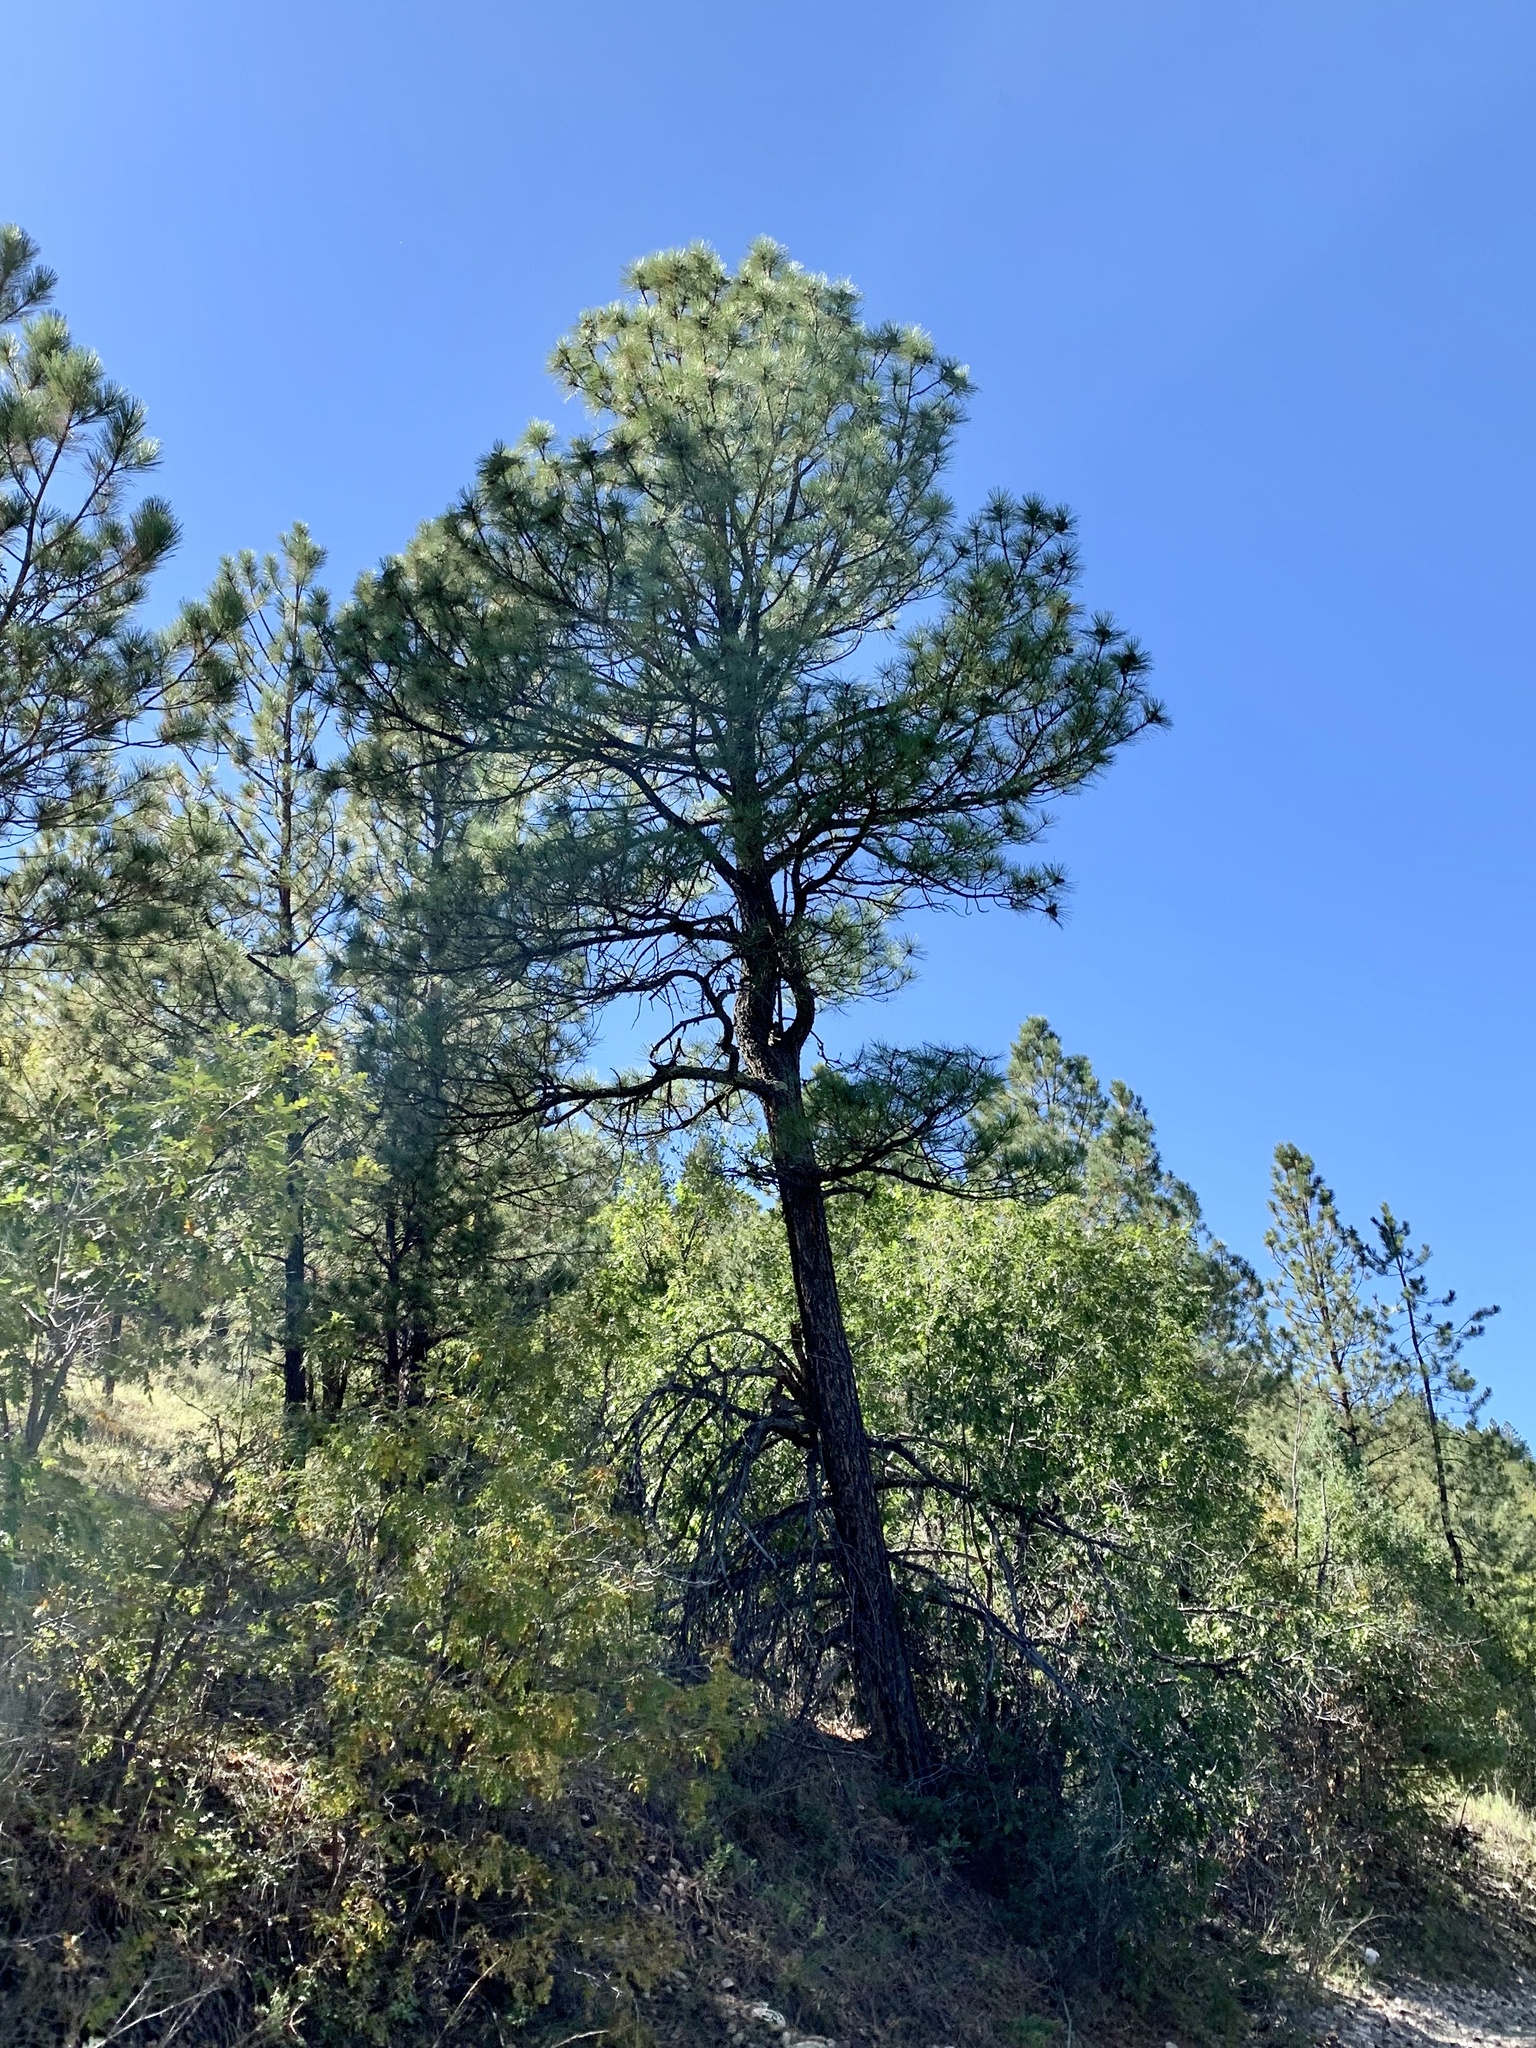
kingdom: Plantae
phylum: Tracheophyta
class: Pinopsida
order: Pinales
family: Pinaceae
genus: Pinus
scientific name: Pinus ponderosa
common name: Western yellow-pine
